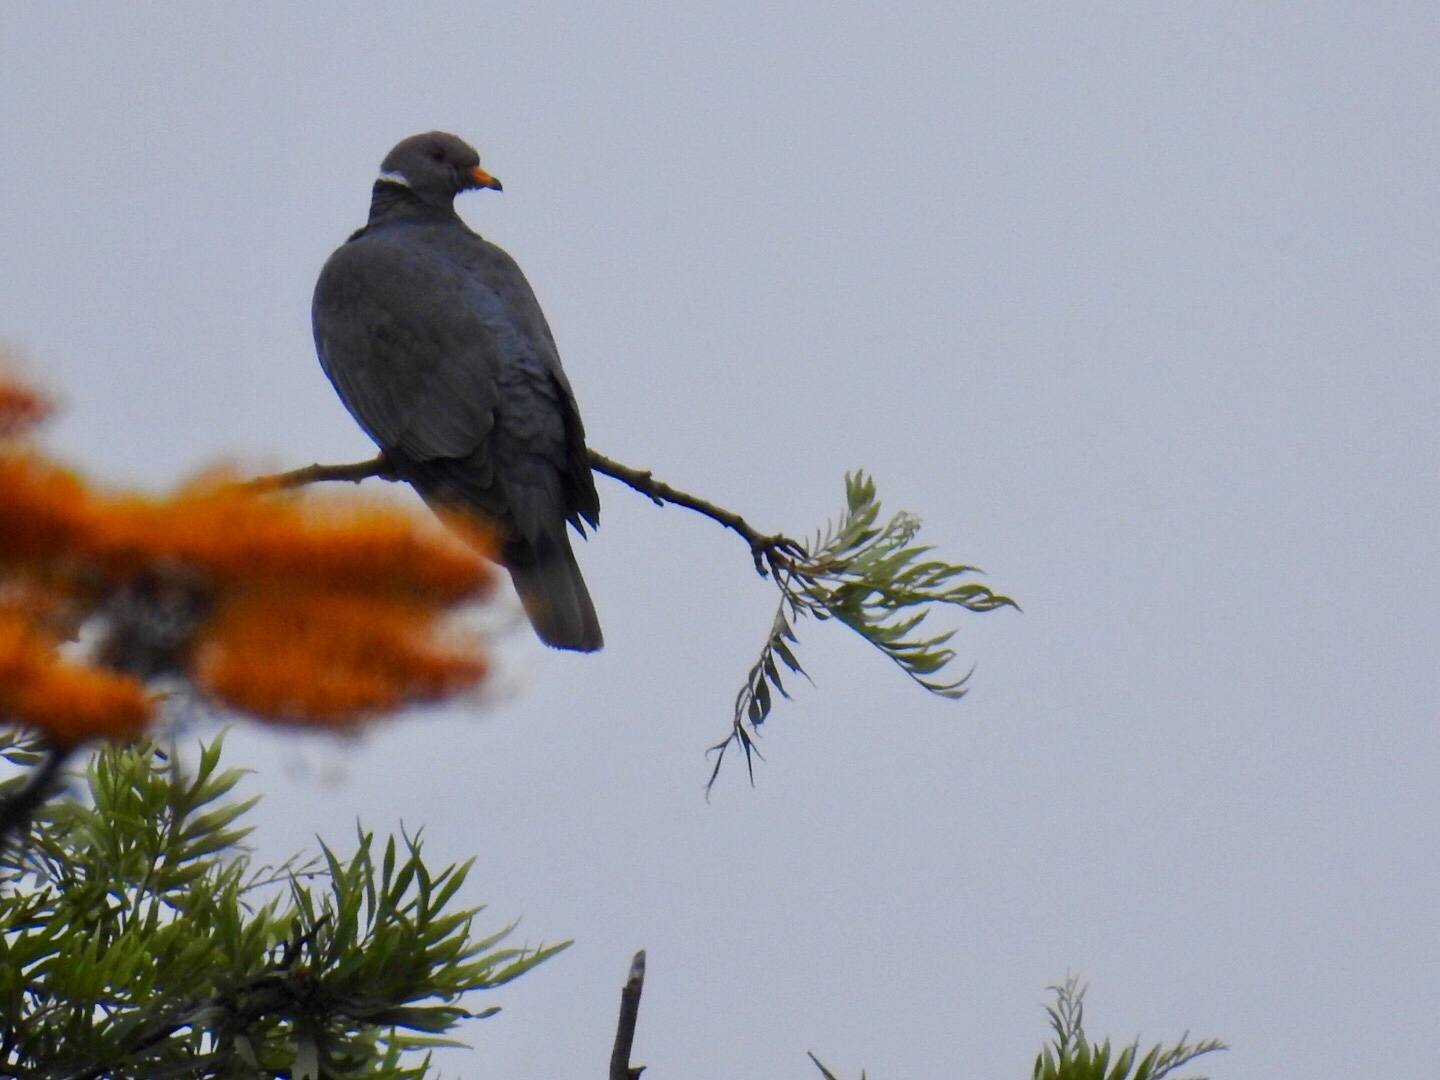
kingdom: Animalia
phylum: Chordata
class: Aves
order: Columbiformes
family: Columbidae
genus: Patagioenas
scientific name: Patagioenas fasciata
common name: Band-tailed pigeon
